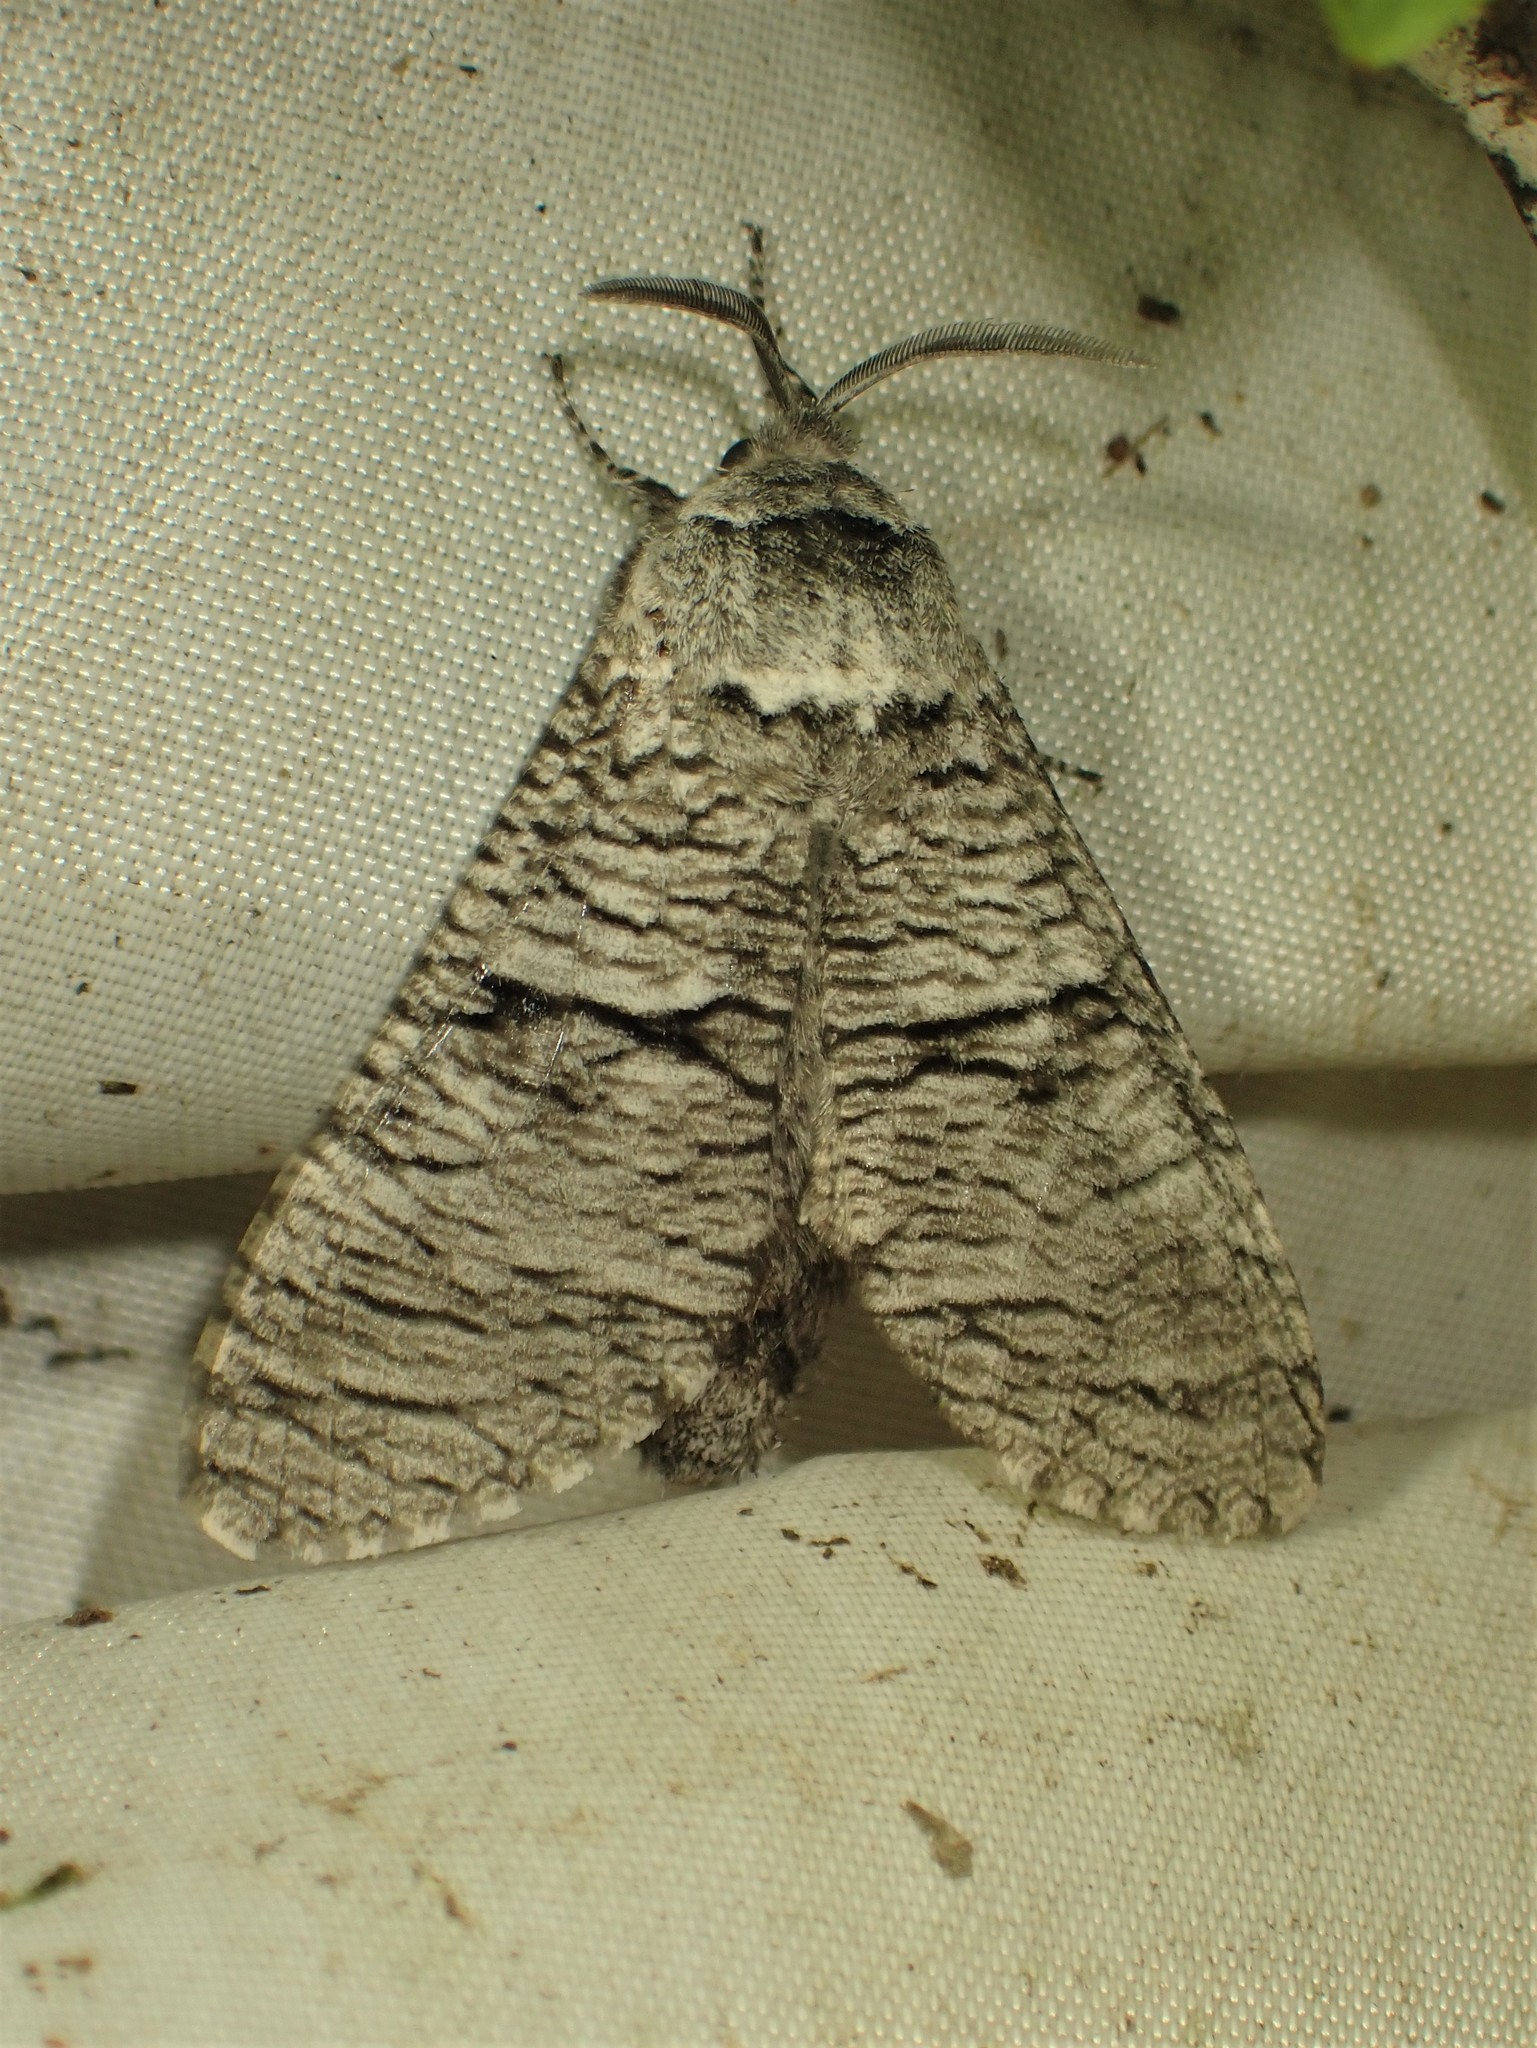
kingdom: Animalia
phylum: Arthropoda
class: Insecta
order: Lepidoptera
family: Cossidae
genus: Acossus
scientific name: Acossus populi
